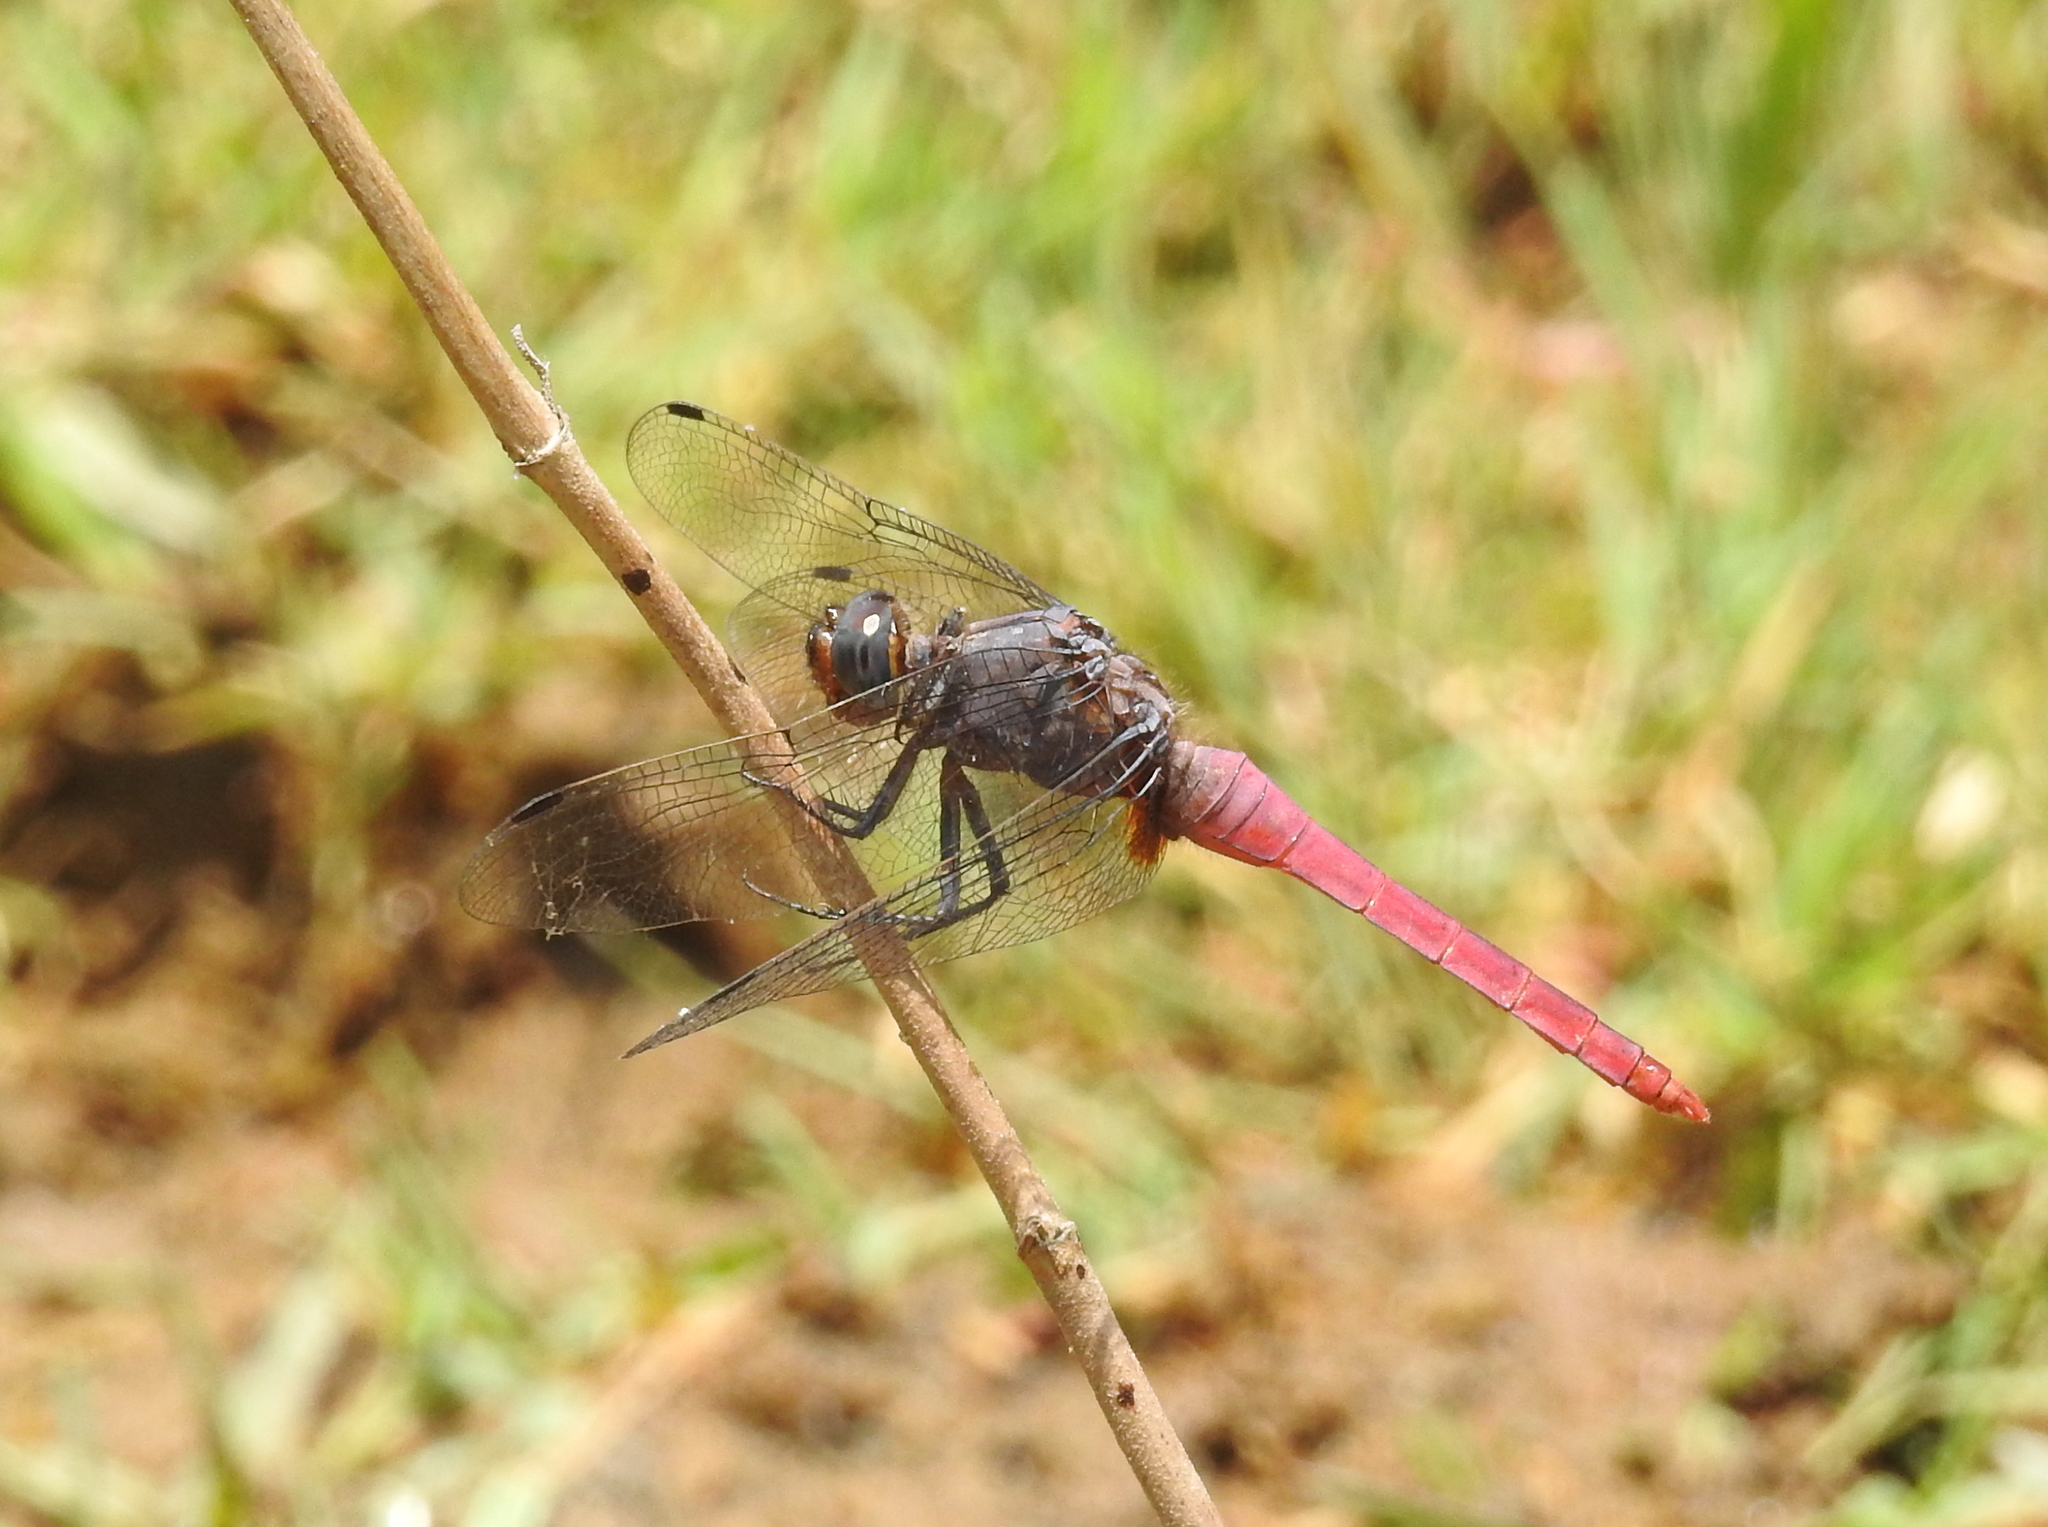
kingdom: Animalia
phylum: Arthropoda
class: Insecta
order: Odonata
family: Libellulidae
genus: Orthetrum
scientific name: Orthetrum pruinosum
